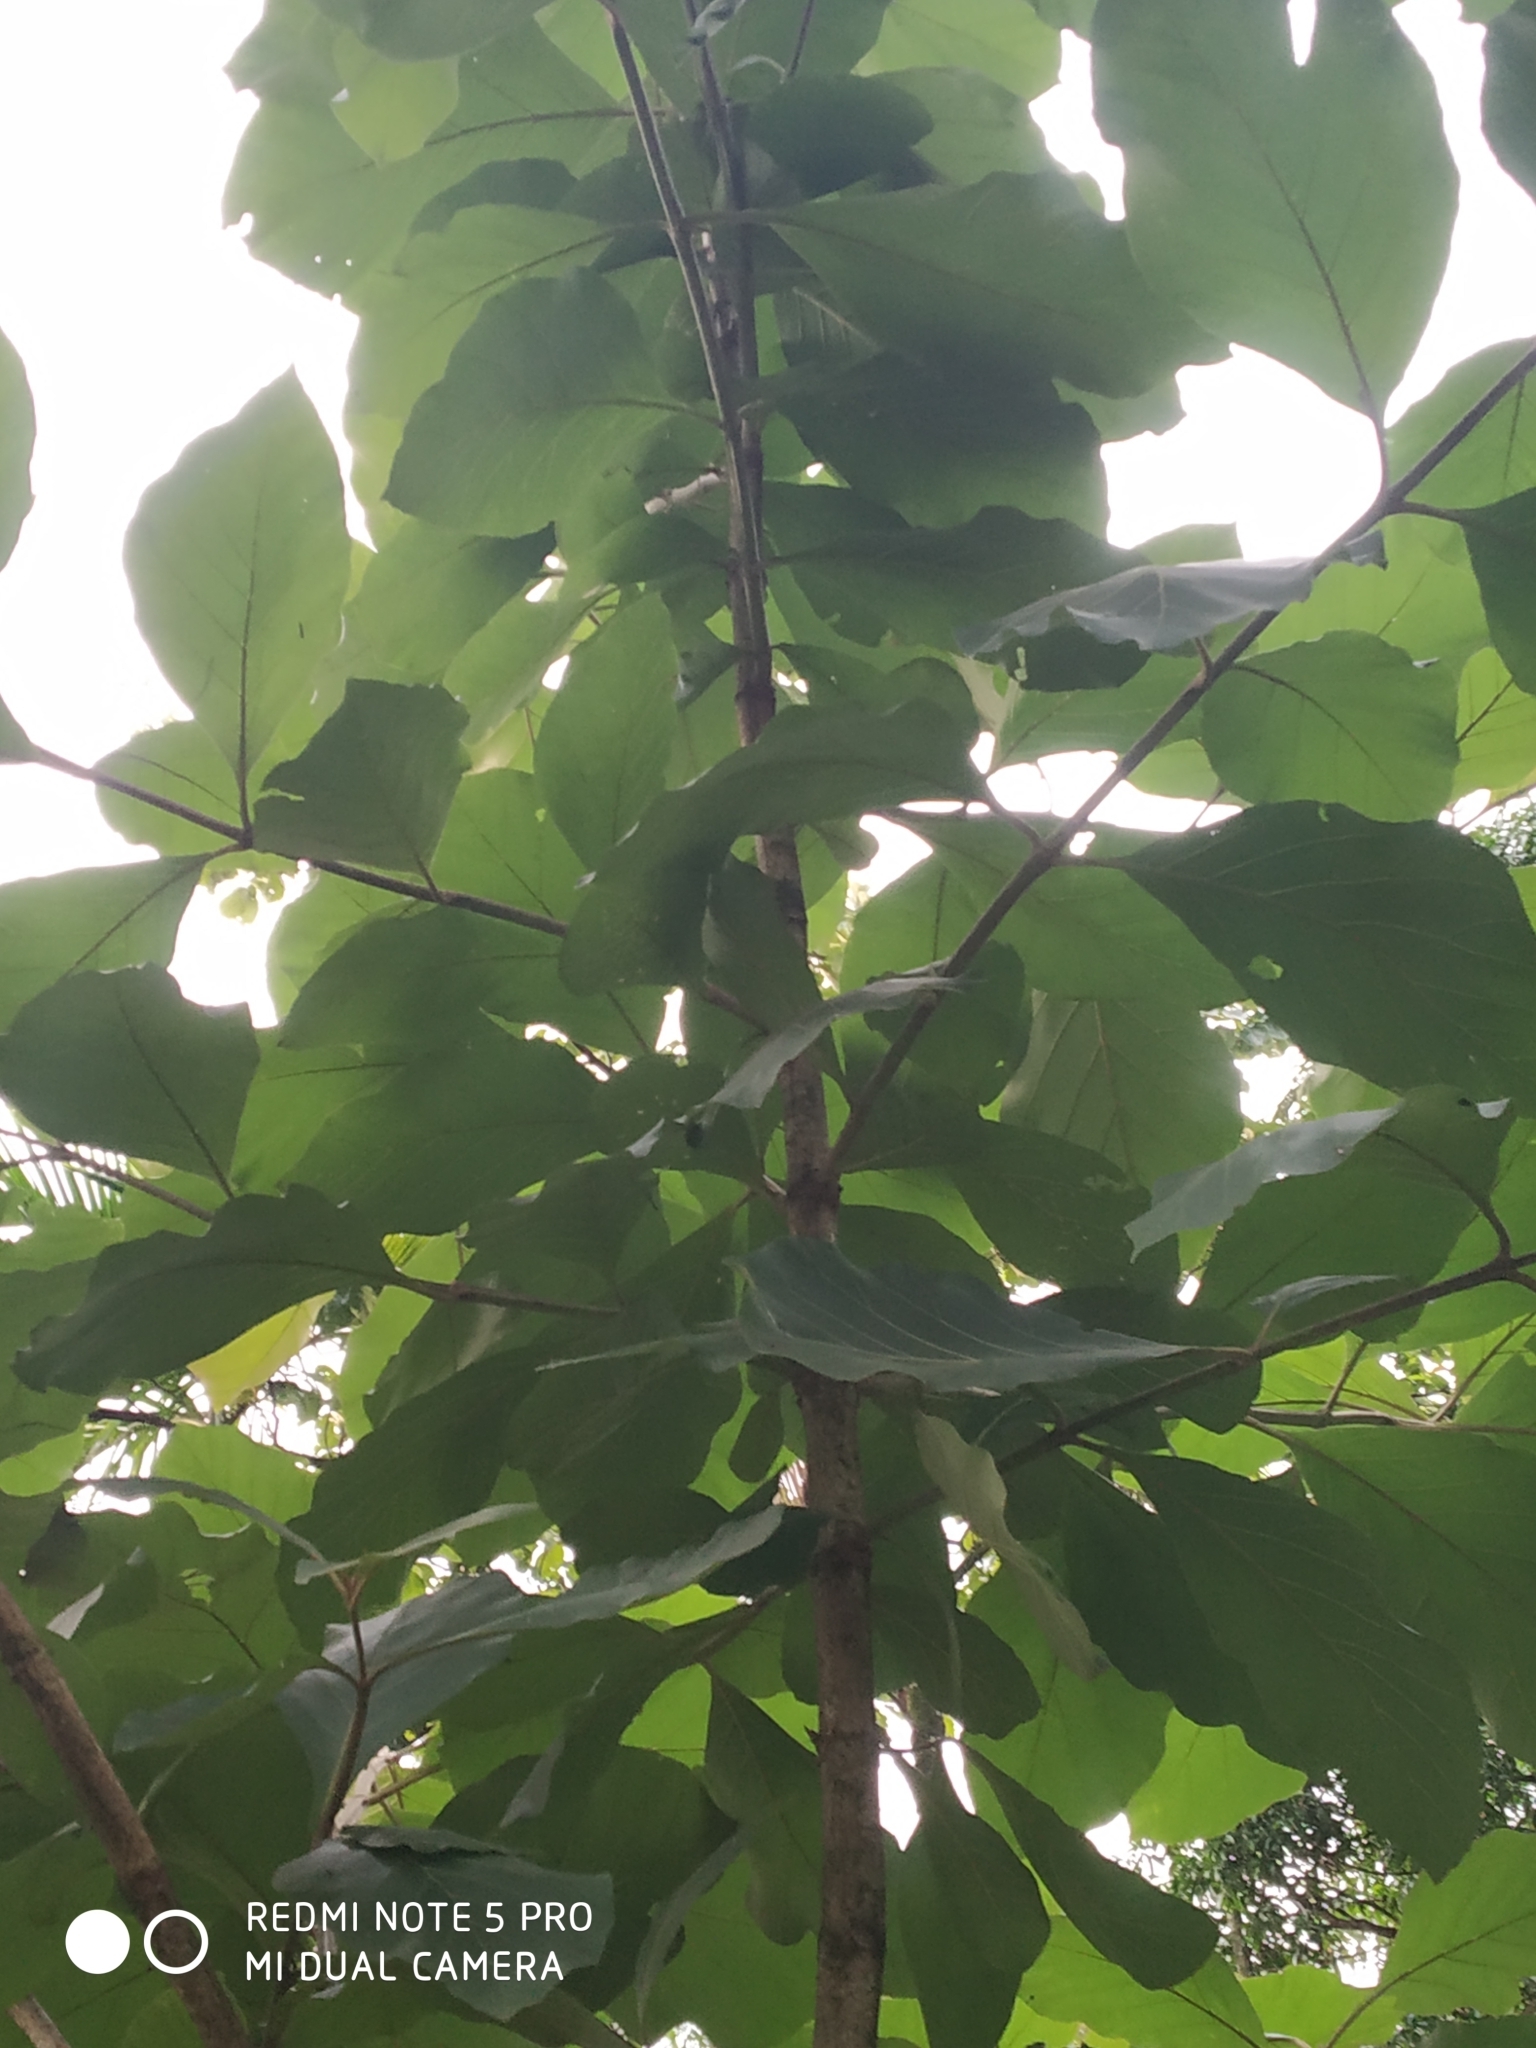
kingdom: Plantae
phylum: Tracheophyta
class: Magnoliopsida
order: Lamiales
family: Lamiaceae
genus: Tectona
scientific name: Tectona grandis
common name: Teak
